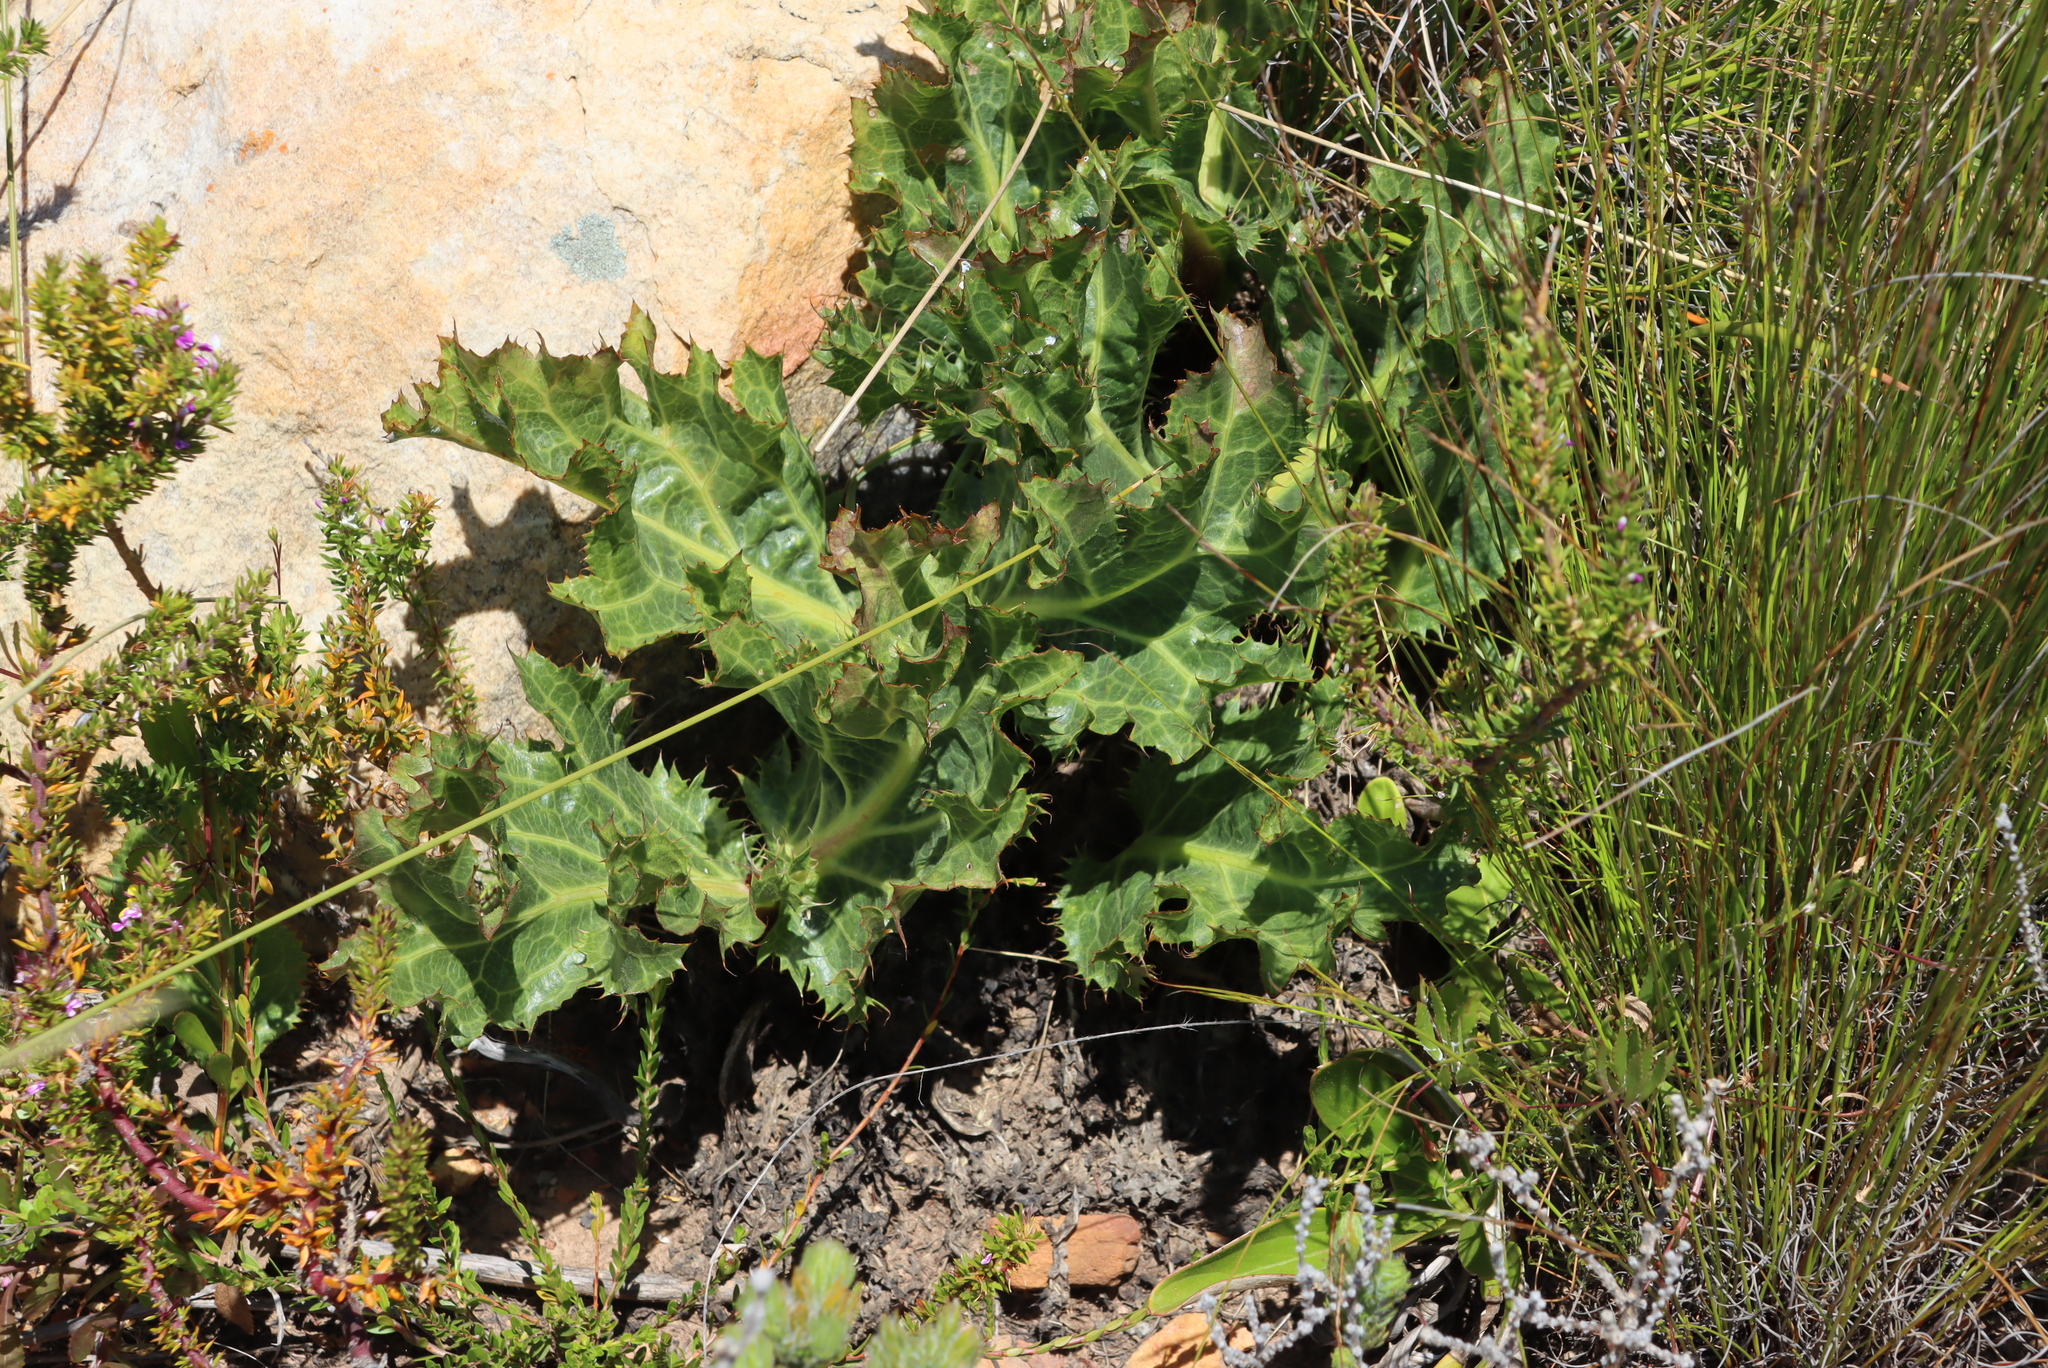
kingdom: Plantae
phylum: Tracheophyta
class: Magnoliopsida
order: Apiales
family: Apiaceae
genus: Lichtensteinia
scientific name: Lichtensteinia lacera
